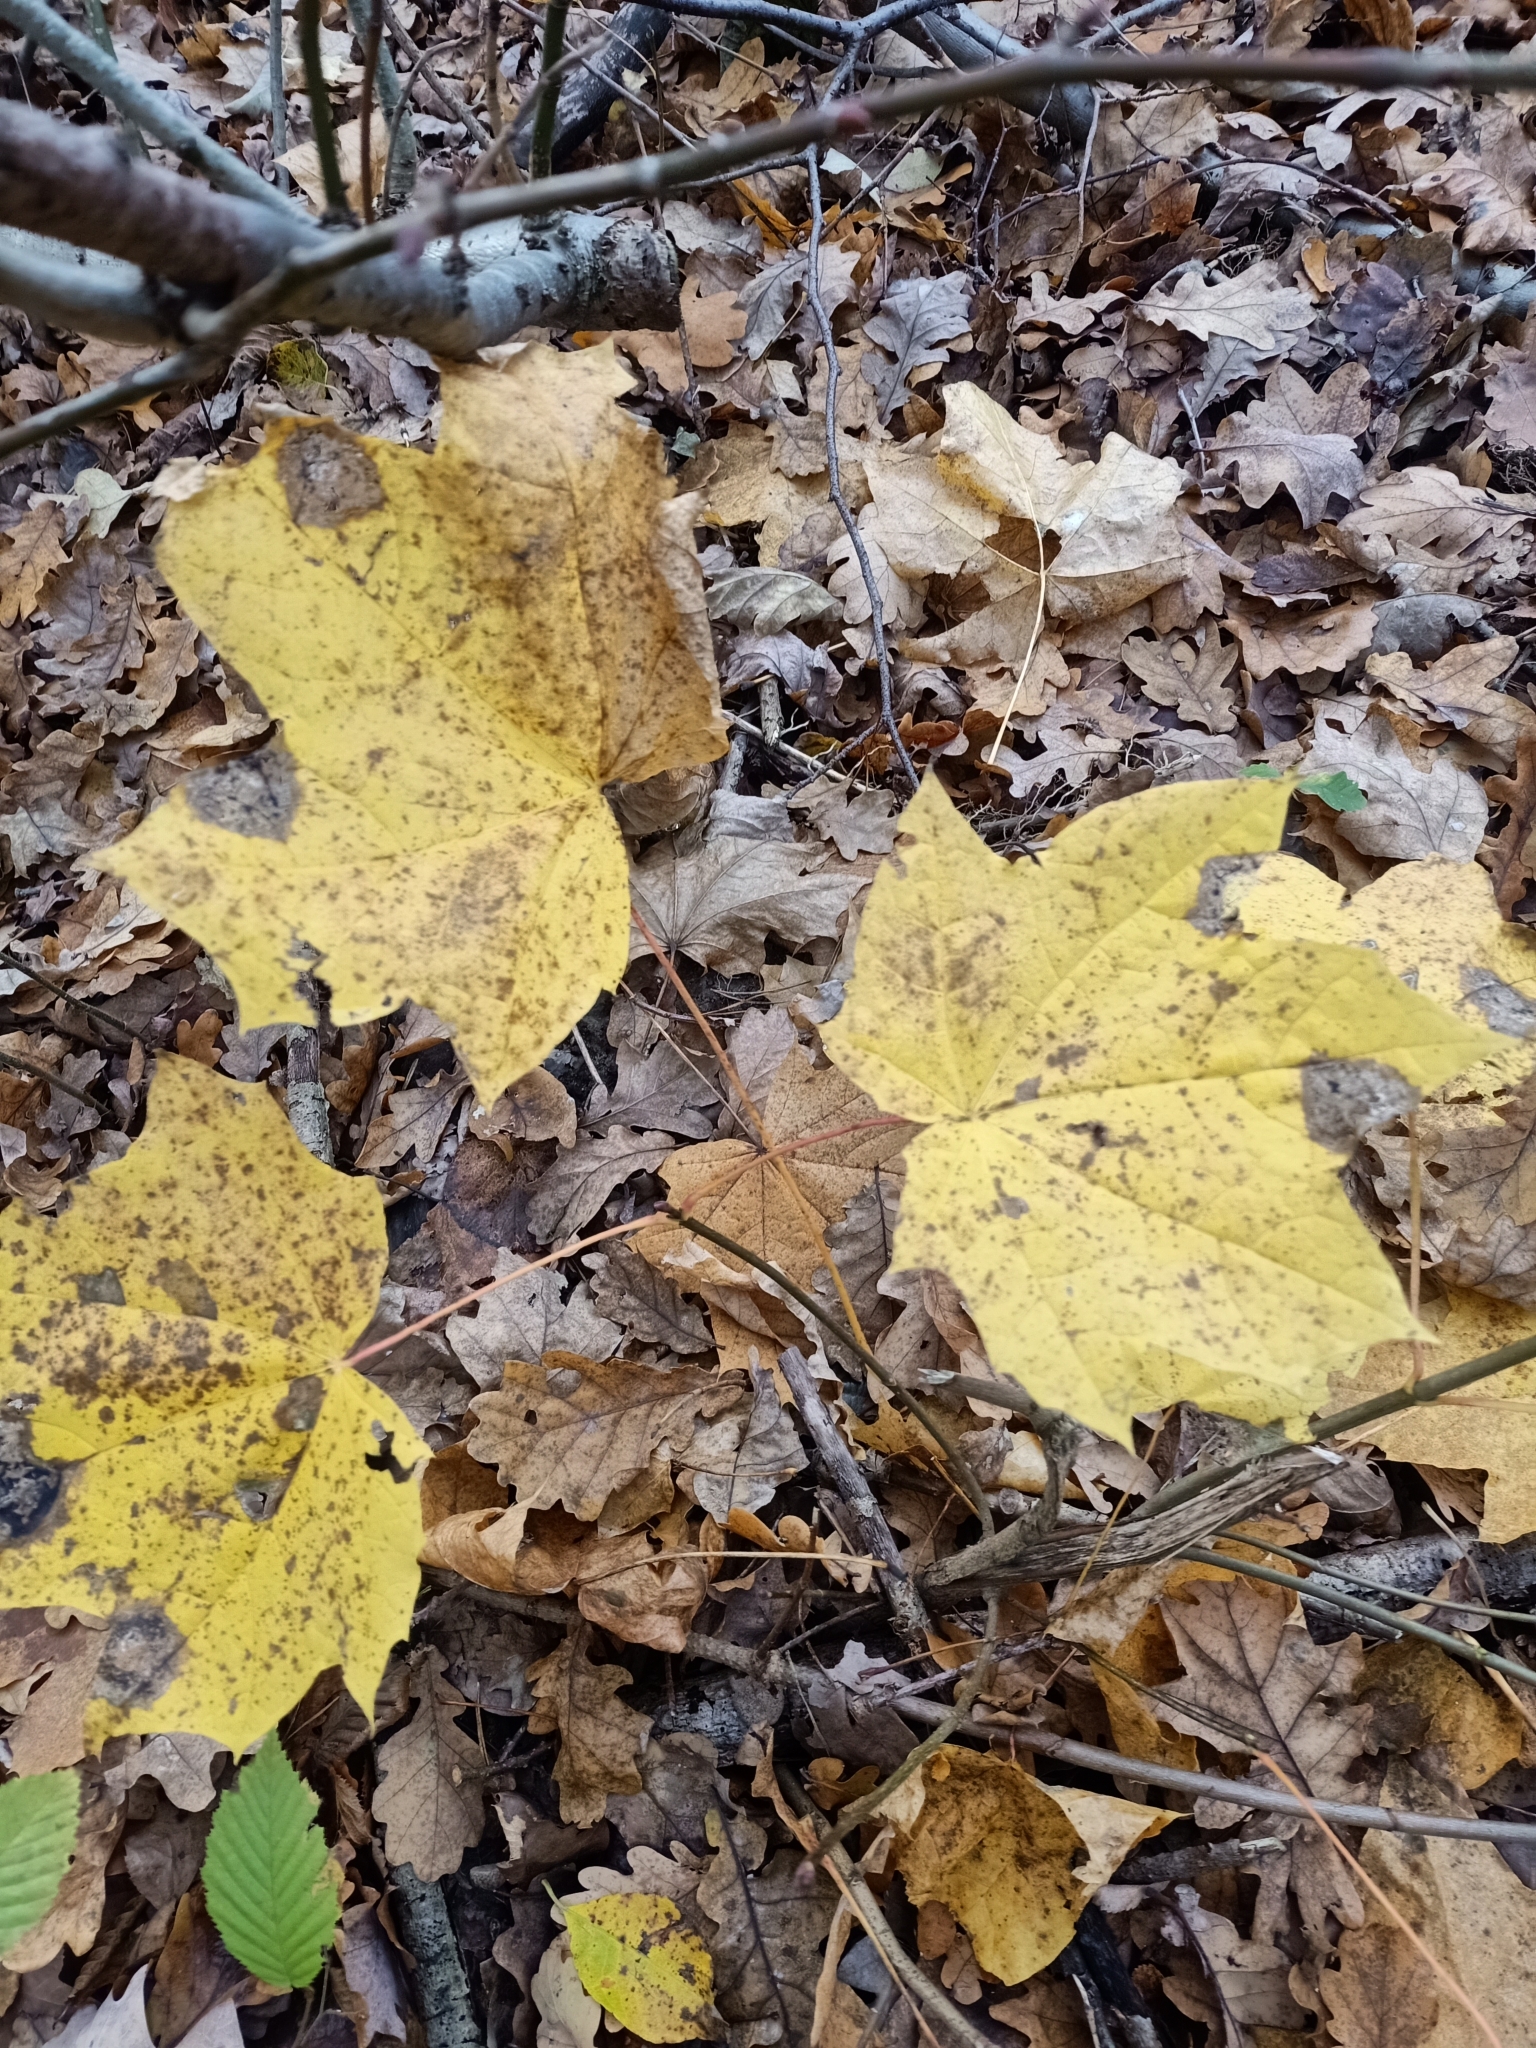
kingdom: Plantae
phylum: Tracheophyta
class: Magnoliopsida
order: Sapindales
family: Sapindaceae
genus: Acer
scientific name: Acer platanoides
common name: Norway maple
